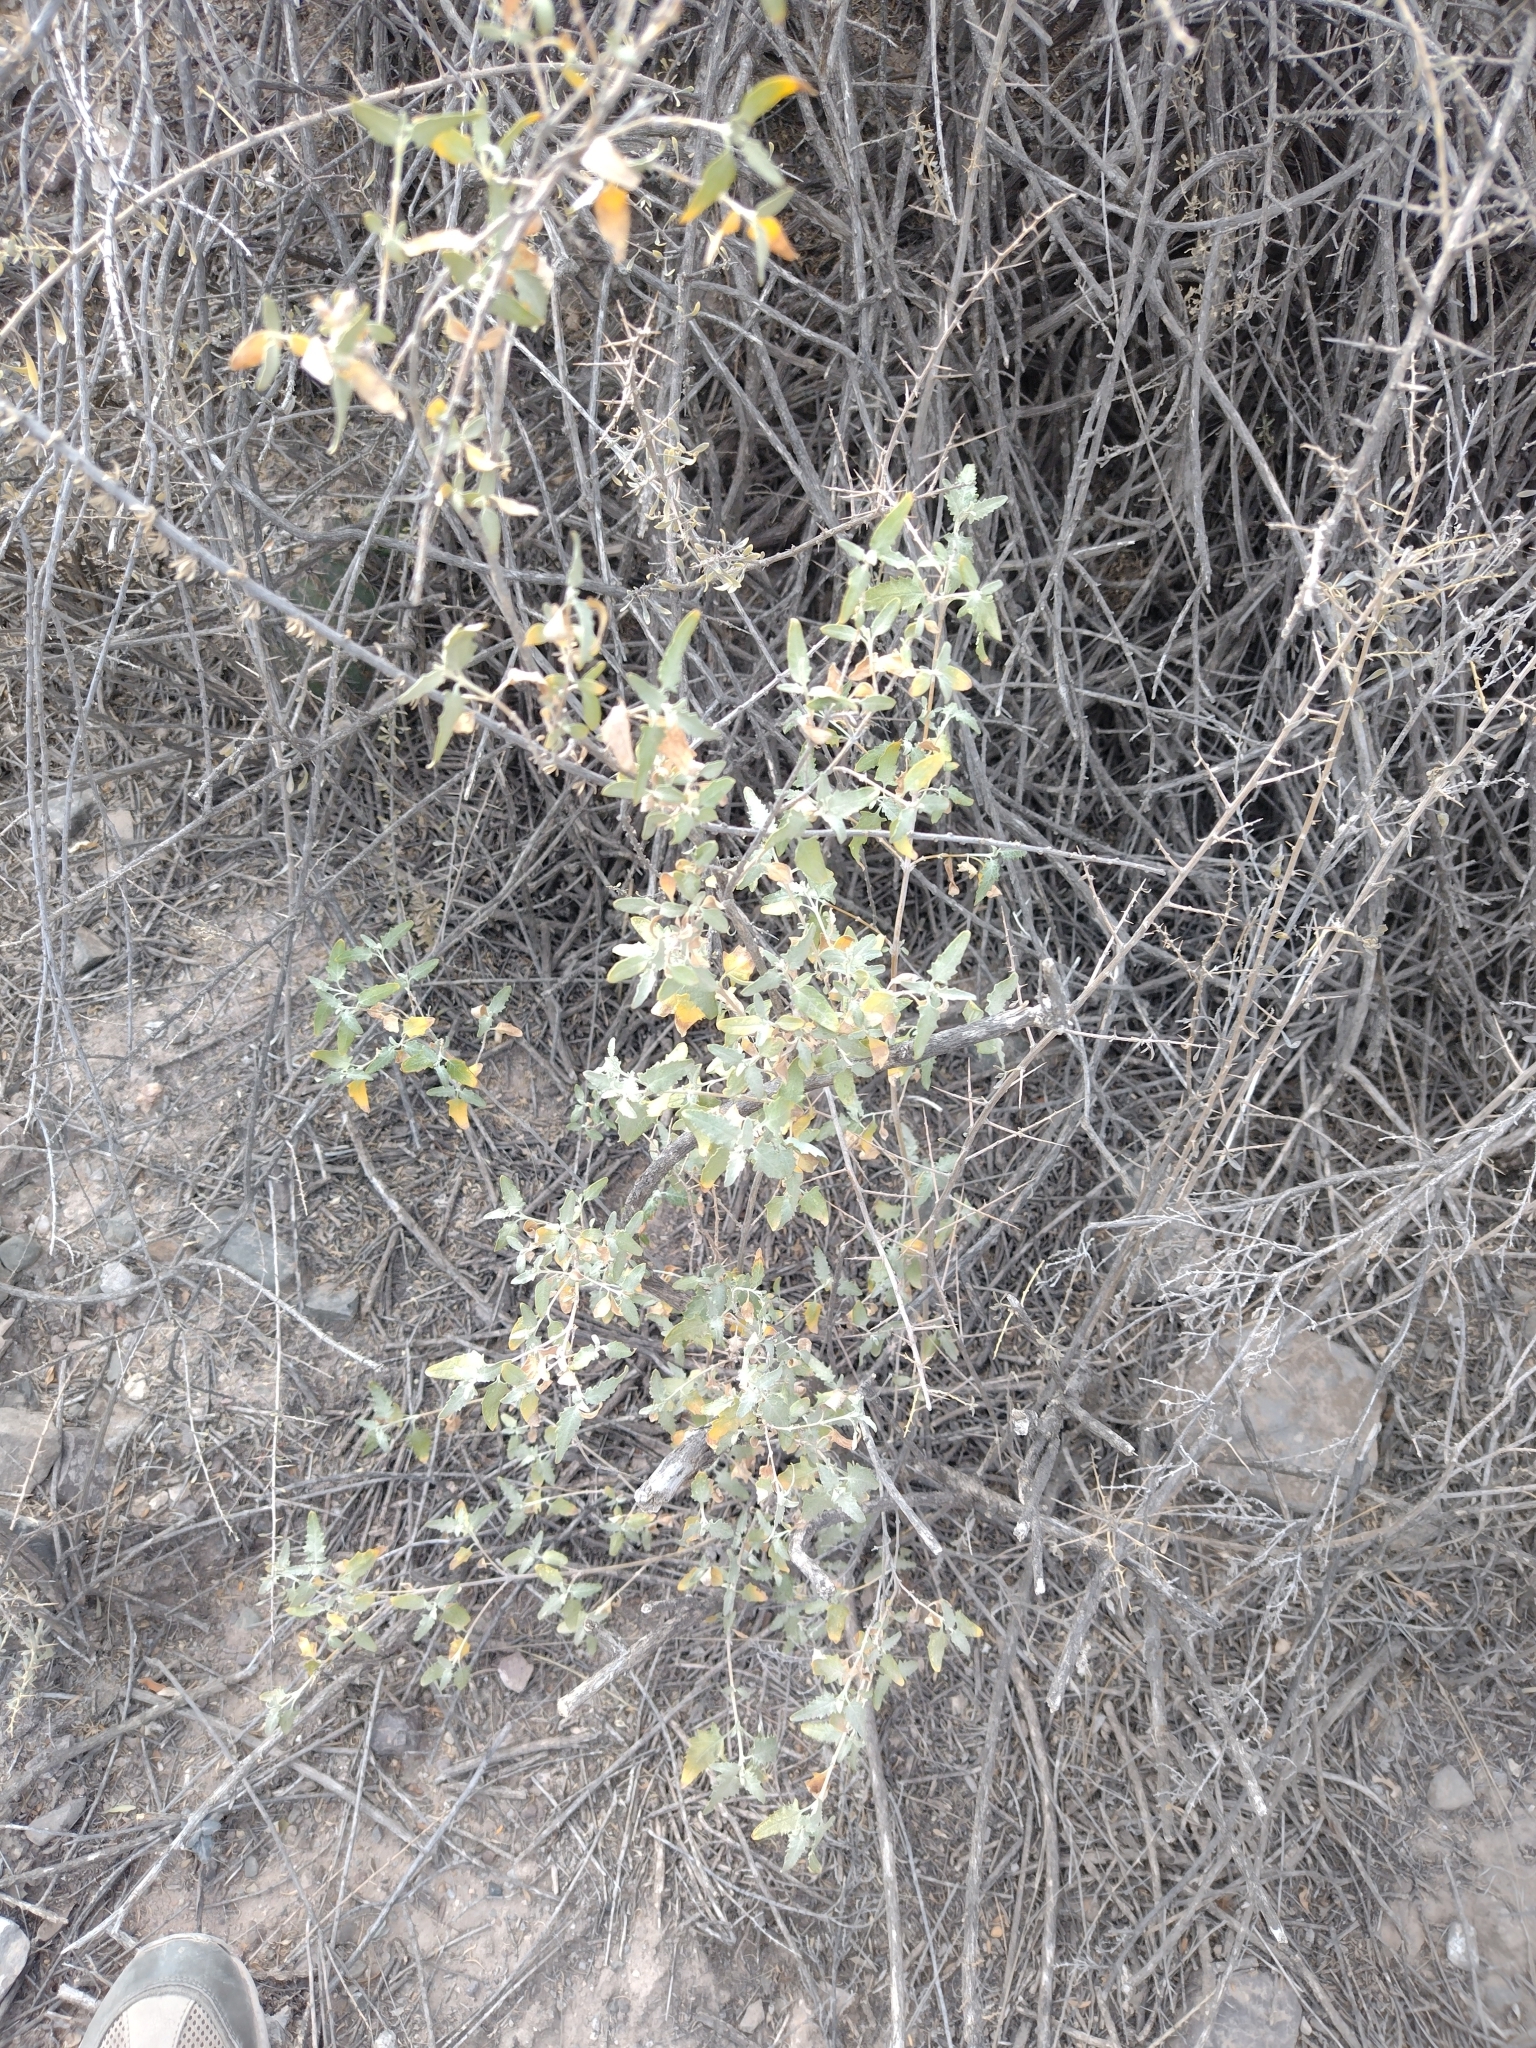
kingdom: Plantae
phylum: Tracheophyta
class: Magnoliopsida
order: Lamiales
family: Scrophulariaceae
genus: Buddleja
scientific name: Buddleja mendozensis
